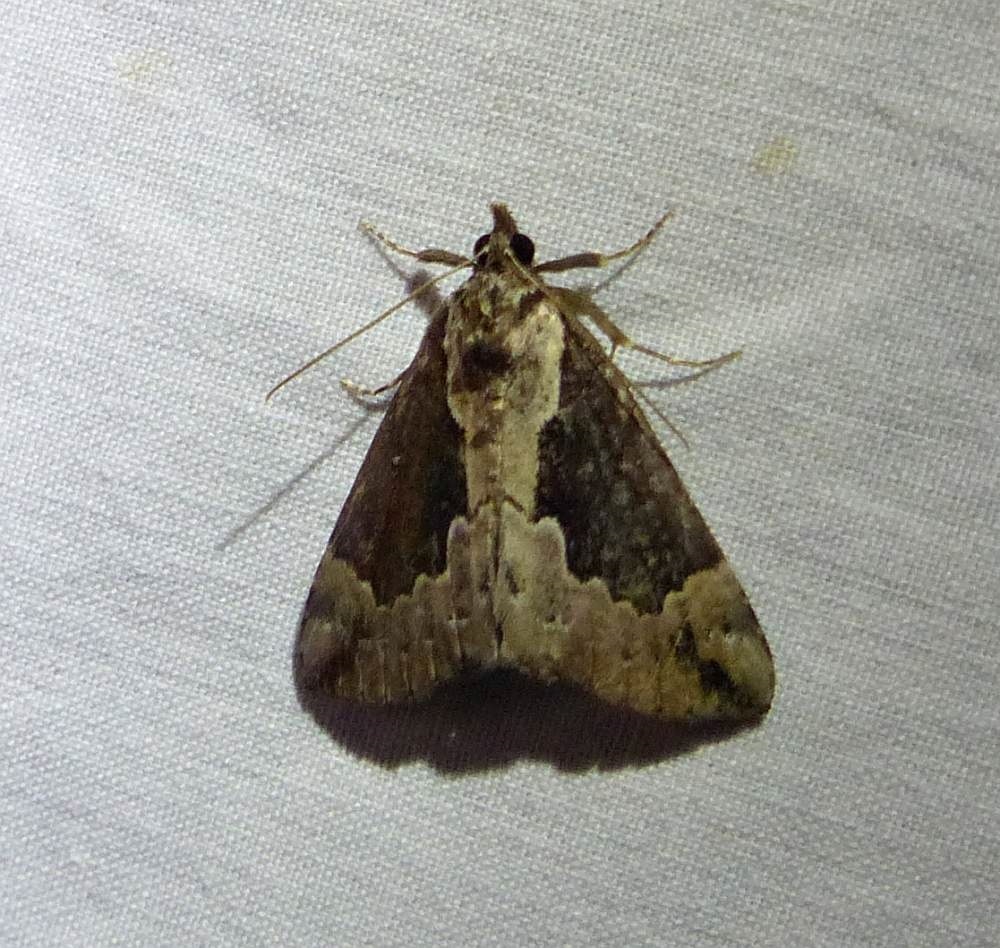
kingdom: Animalia
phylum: Arthropoda
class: Insecta
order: Lepidoptera
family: Erebidae
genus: Hypena
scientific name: Hypena baltimoralis
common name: Baltimore snout
